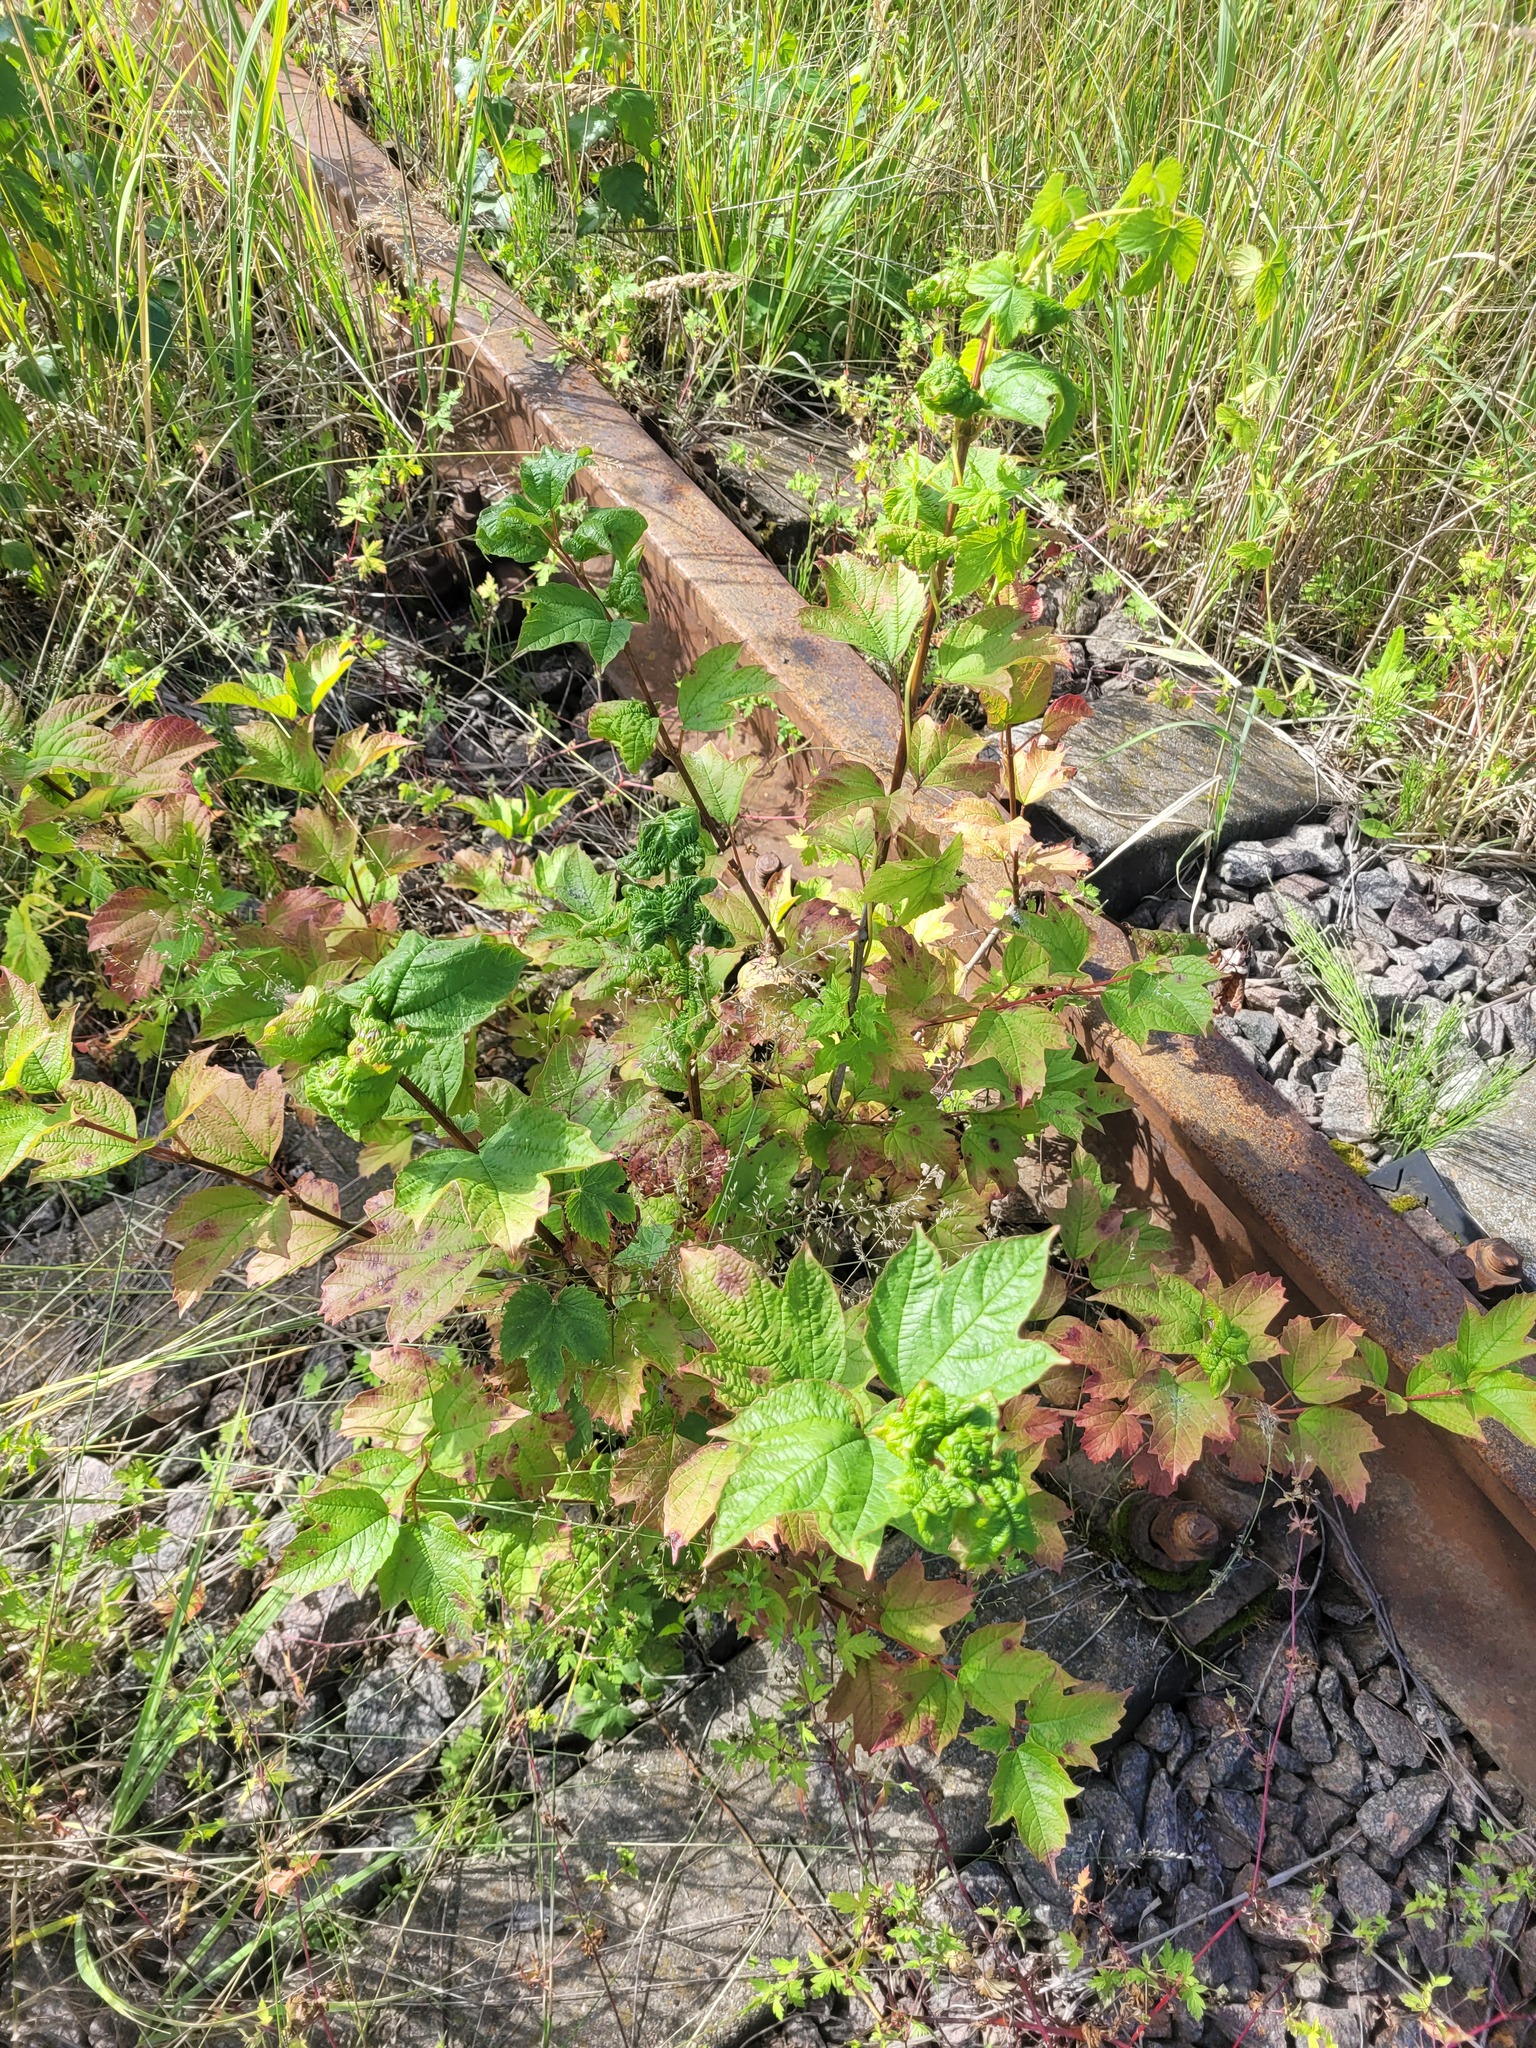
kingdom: Plantae
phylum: Tracheophyta
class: Magnoliopsida
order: Dipsacales
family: Viburnaceae
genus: Viburnum
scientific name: Viburnum opulus
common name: Guelder-rose
